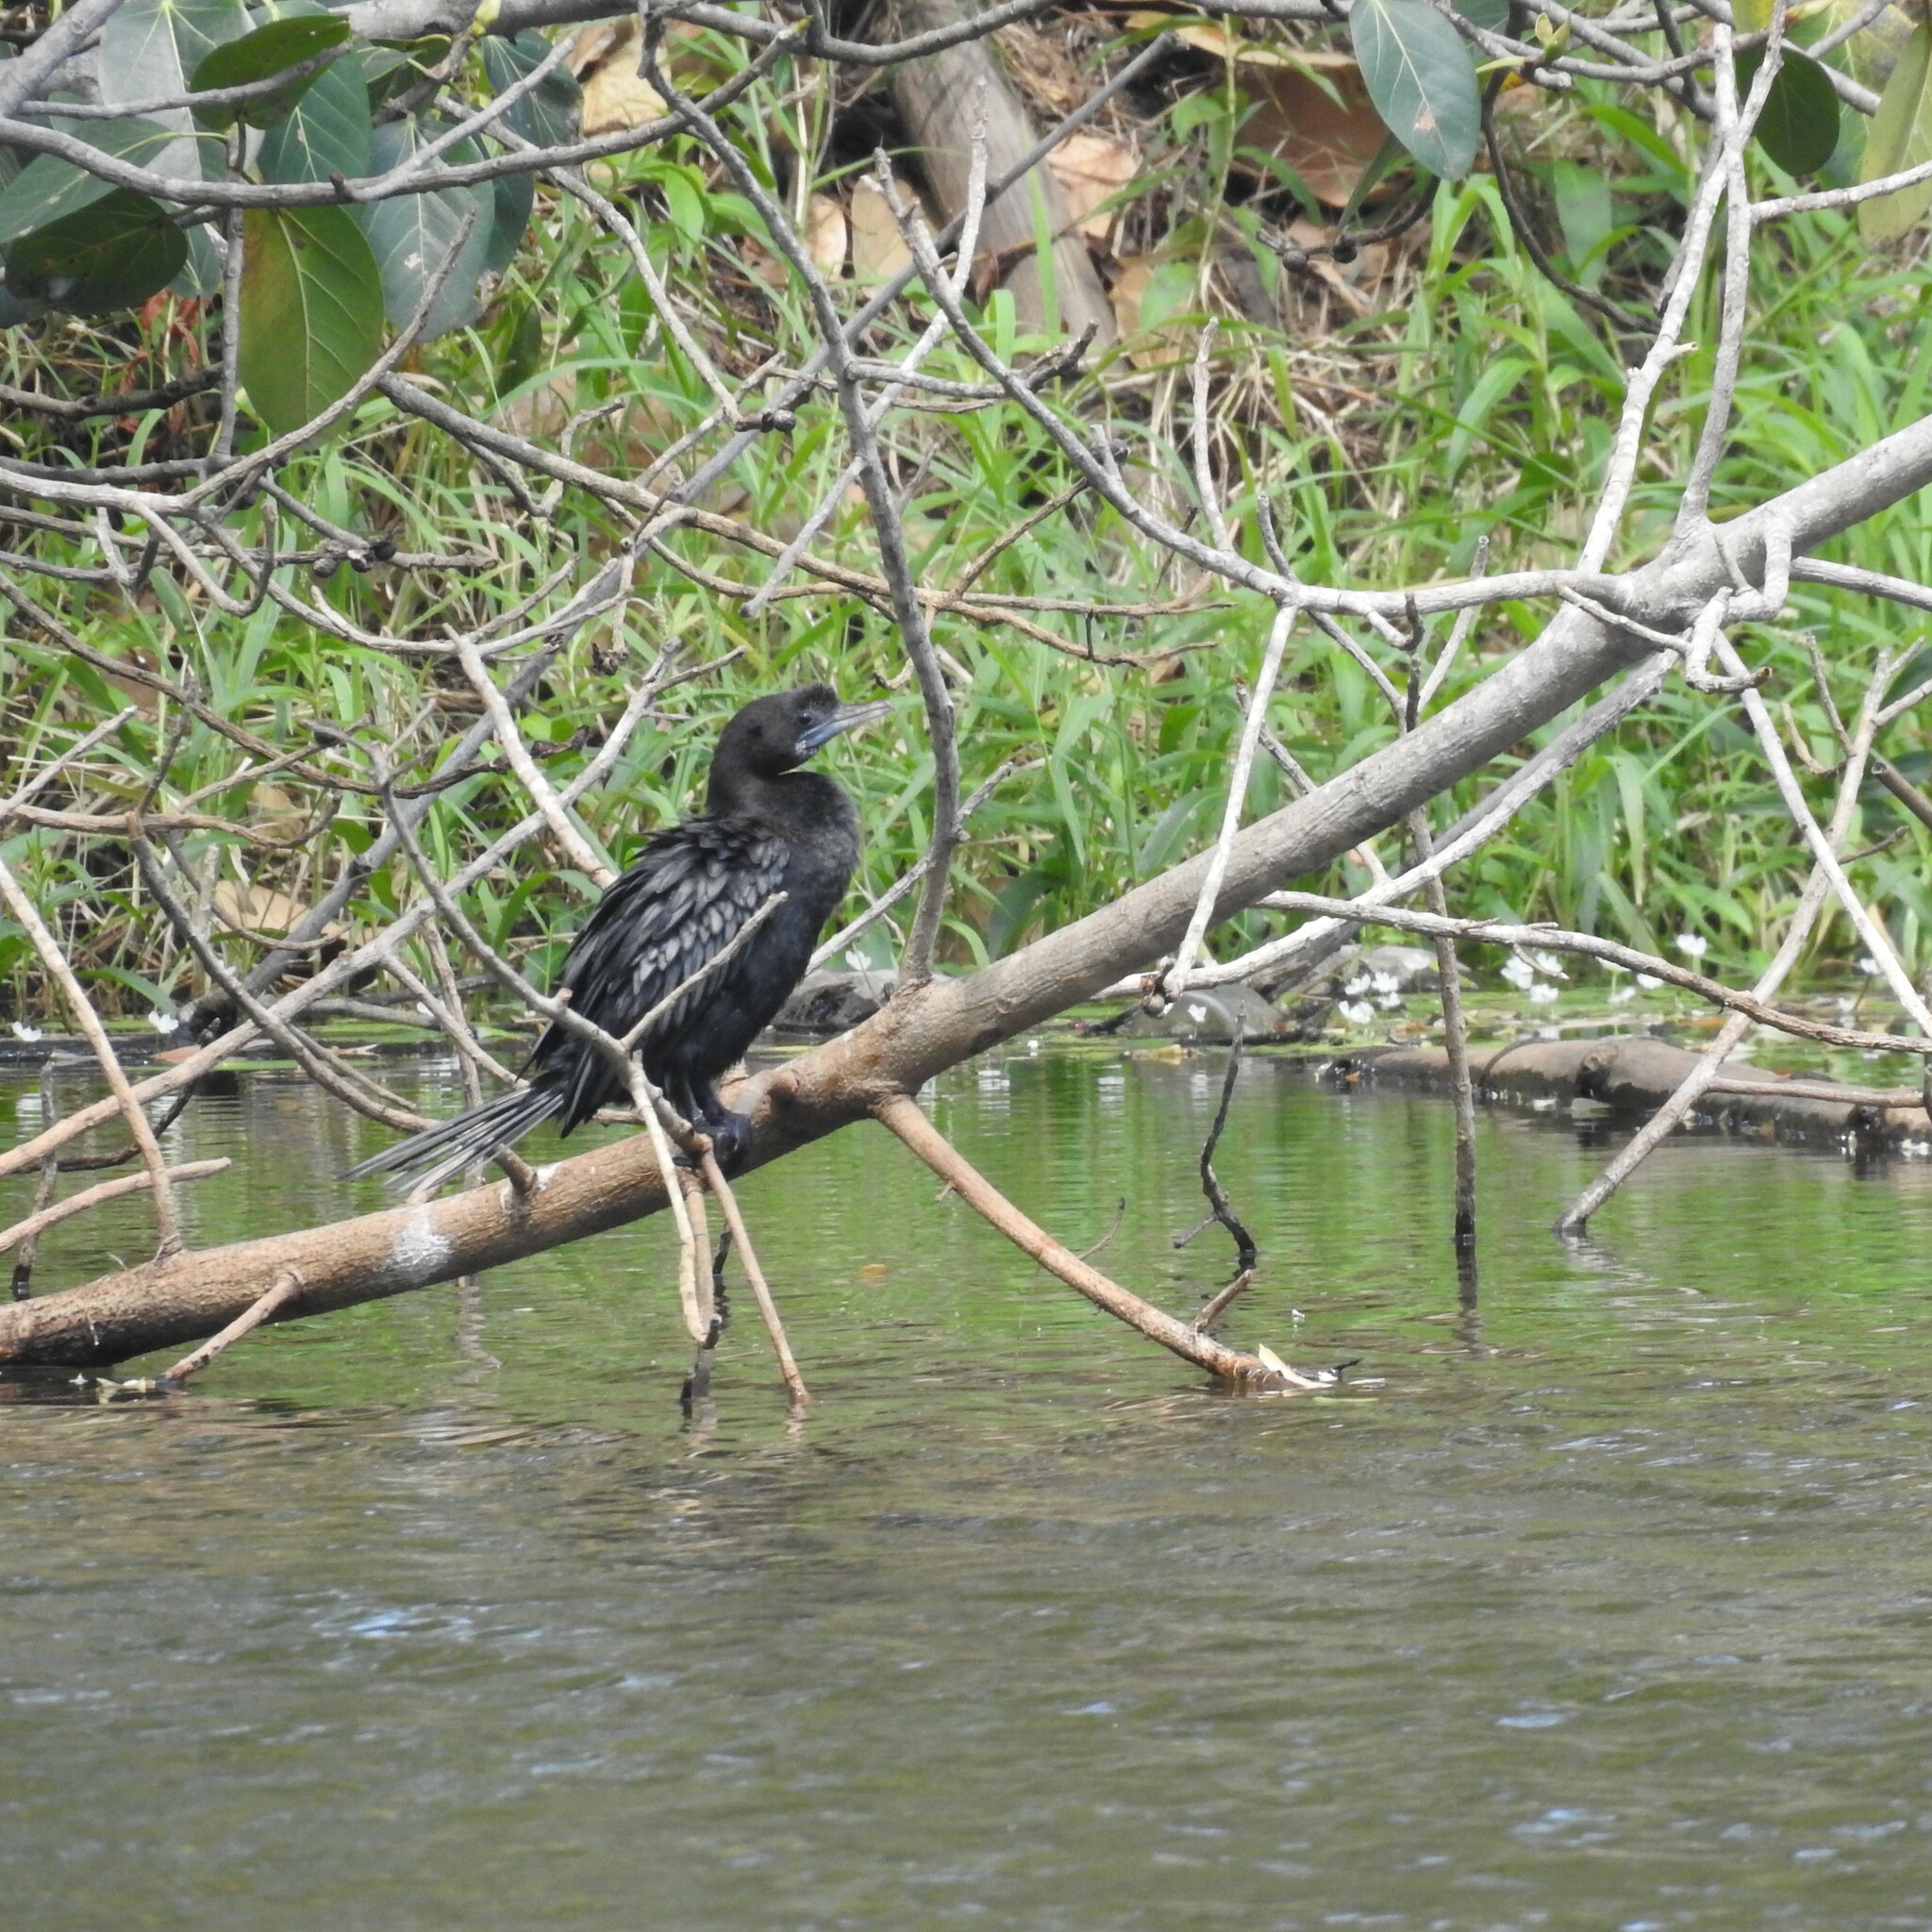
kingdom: Animalia
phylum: Chordata
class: Aves
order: Suliformes
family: Phalacrocoracidae
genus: Microcarbo
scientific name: Microcarbo niger
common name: Little cormorant
